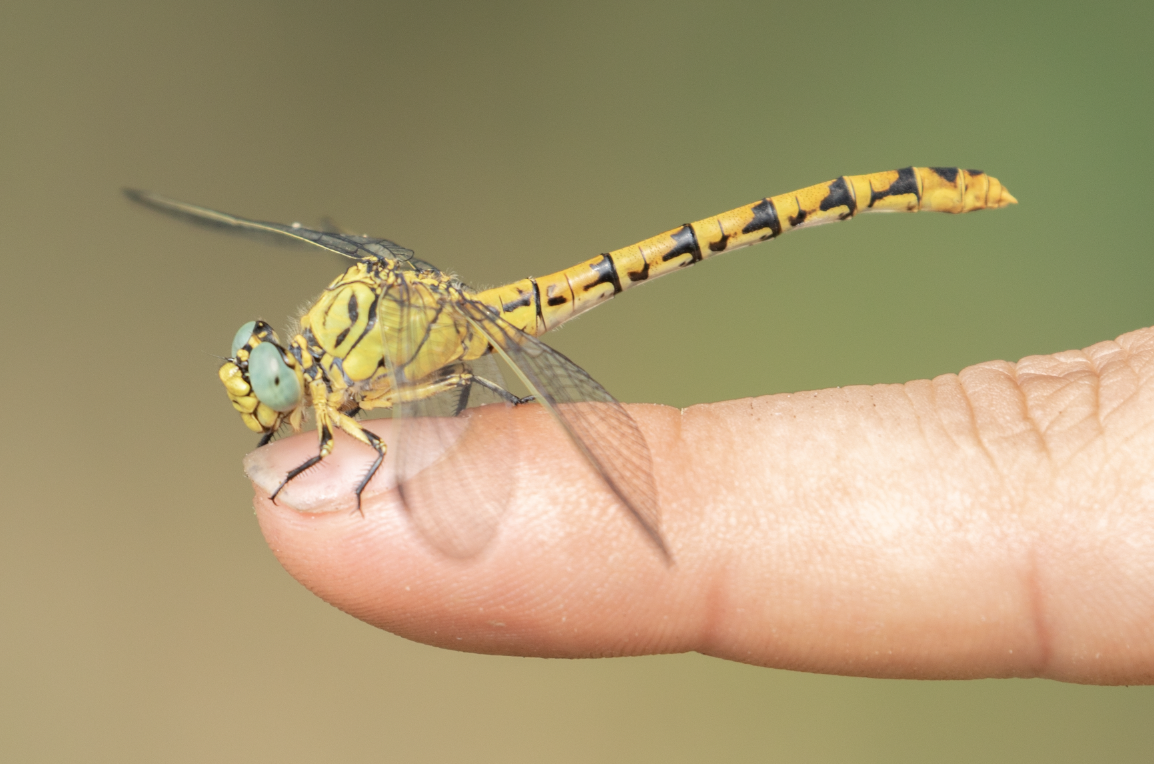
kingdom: Animalia
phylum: Arthropoda
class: Insecta
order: Odonata
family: Gomphidae
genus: Onychogomphus
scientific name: Onychogomphus forcipatus
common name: Small pincertail
